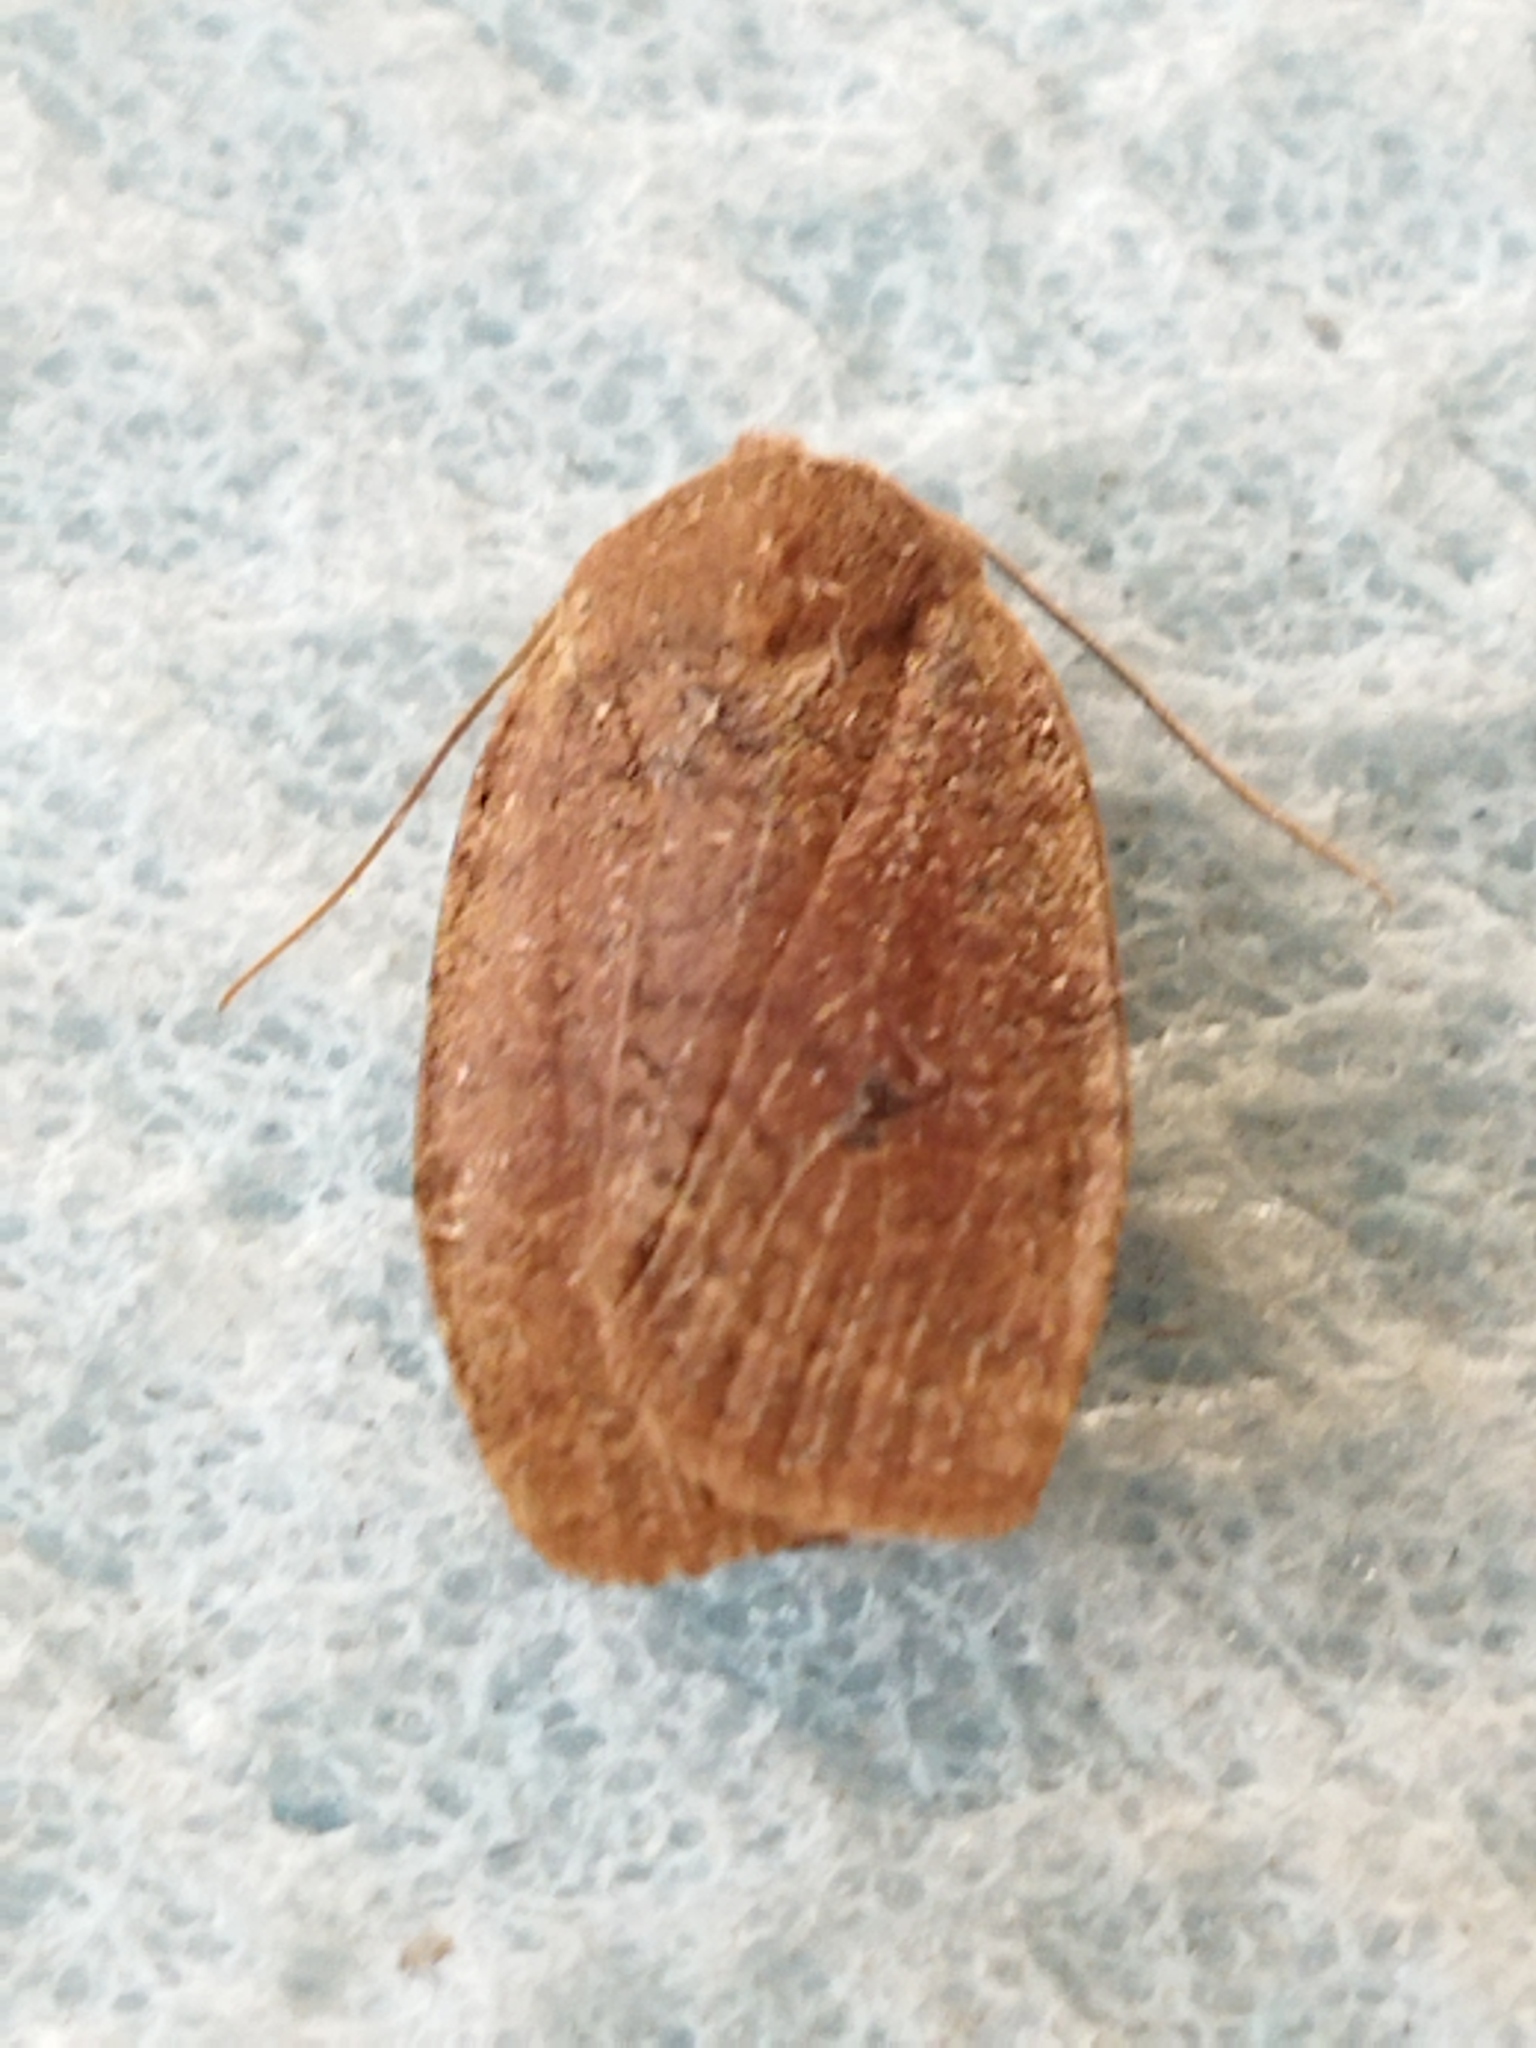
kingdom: Animalia
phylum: Arthropoda
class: Insecta
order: Lepidoptera
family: Noctuidae
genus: Conistra
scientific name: Conistra ragusae
